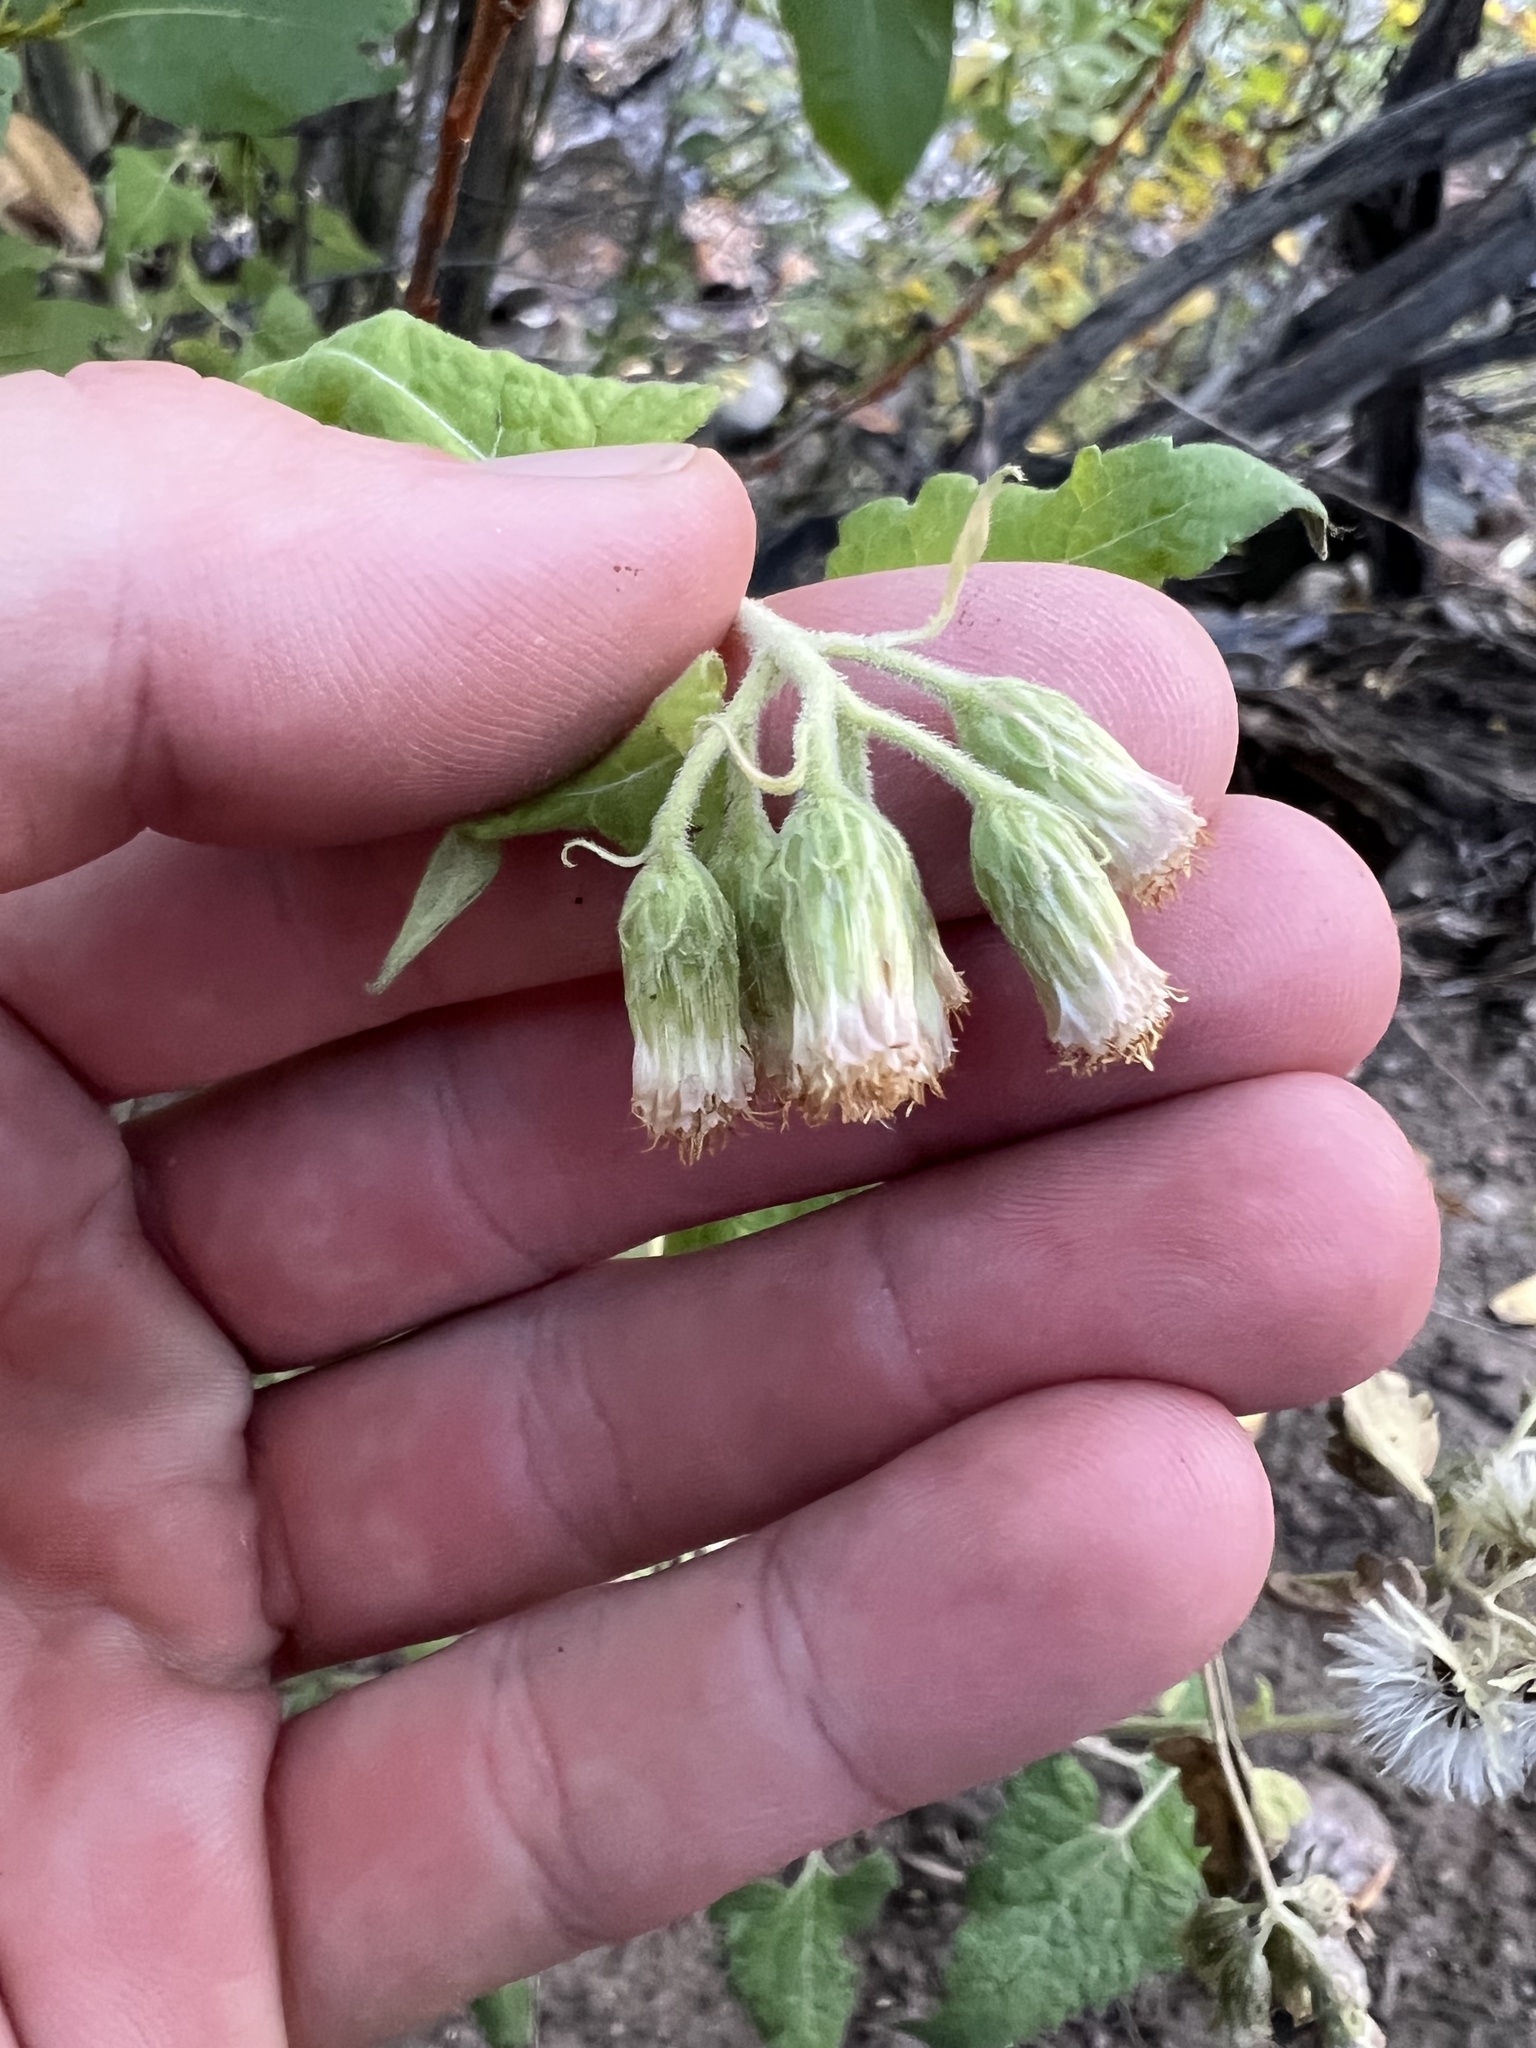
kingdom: Plantae
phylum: Tracheophyta
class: Magnoliopsida
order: Asterales
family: Asteraceae
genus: Brickellia
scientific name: Brickellia grandiflora
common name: Large-flowered brickellia
